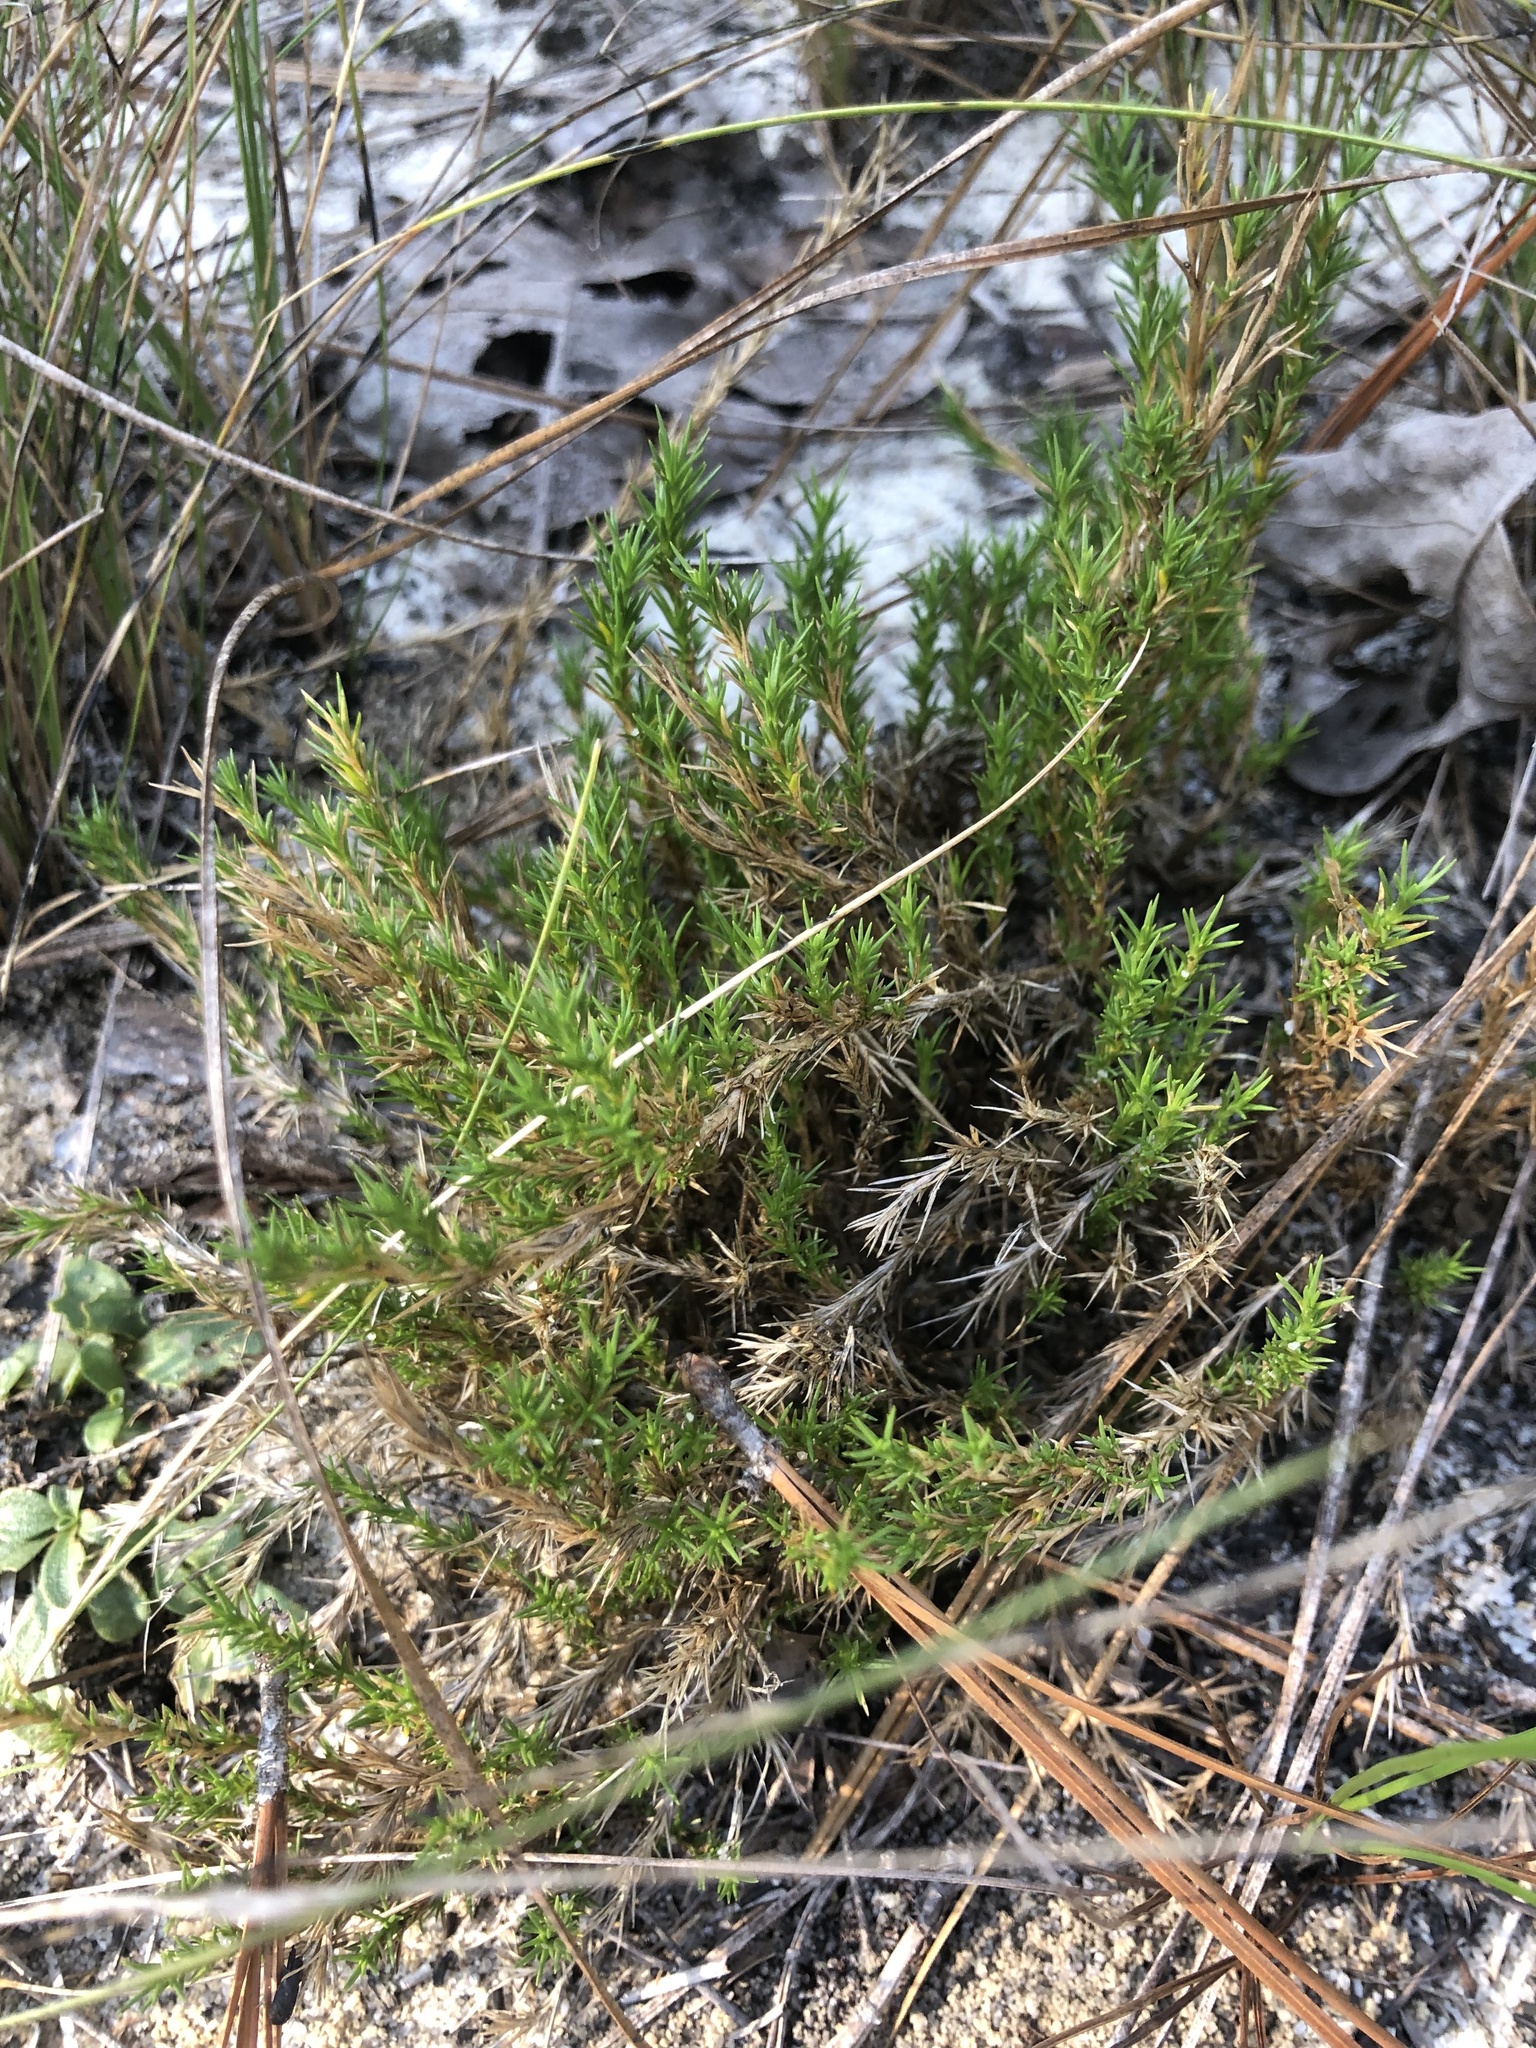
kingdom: Plantae
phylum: Tracheophyta
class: Magnoliopsida
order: Caryophyllales
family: Caryophyllaceae
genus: Geocarpon
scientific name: Geocarpon carolinianum
